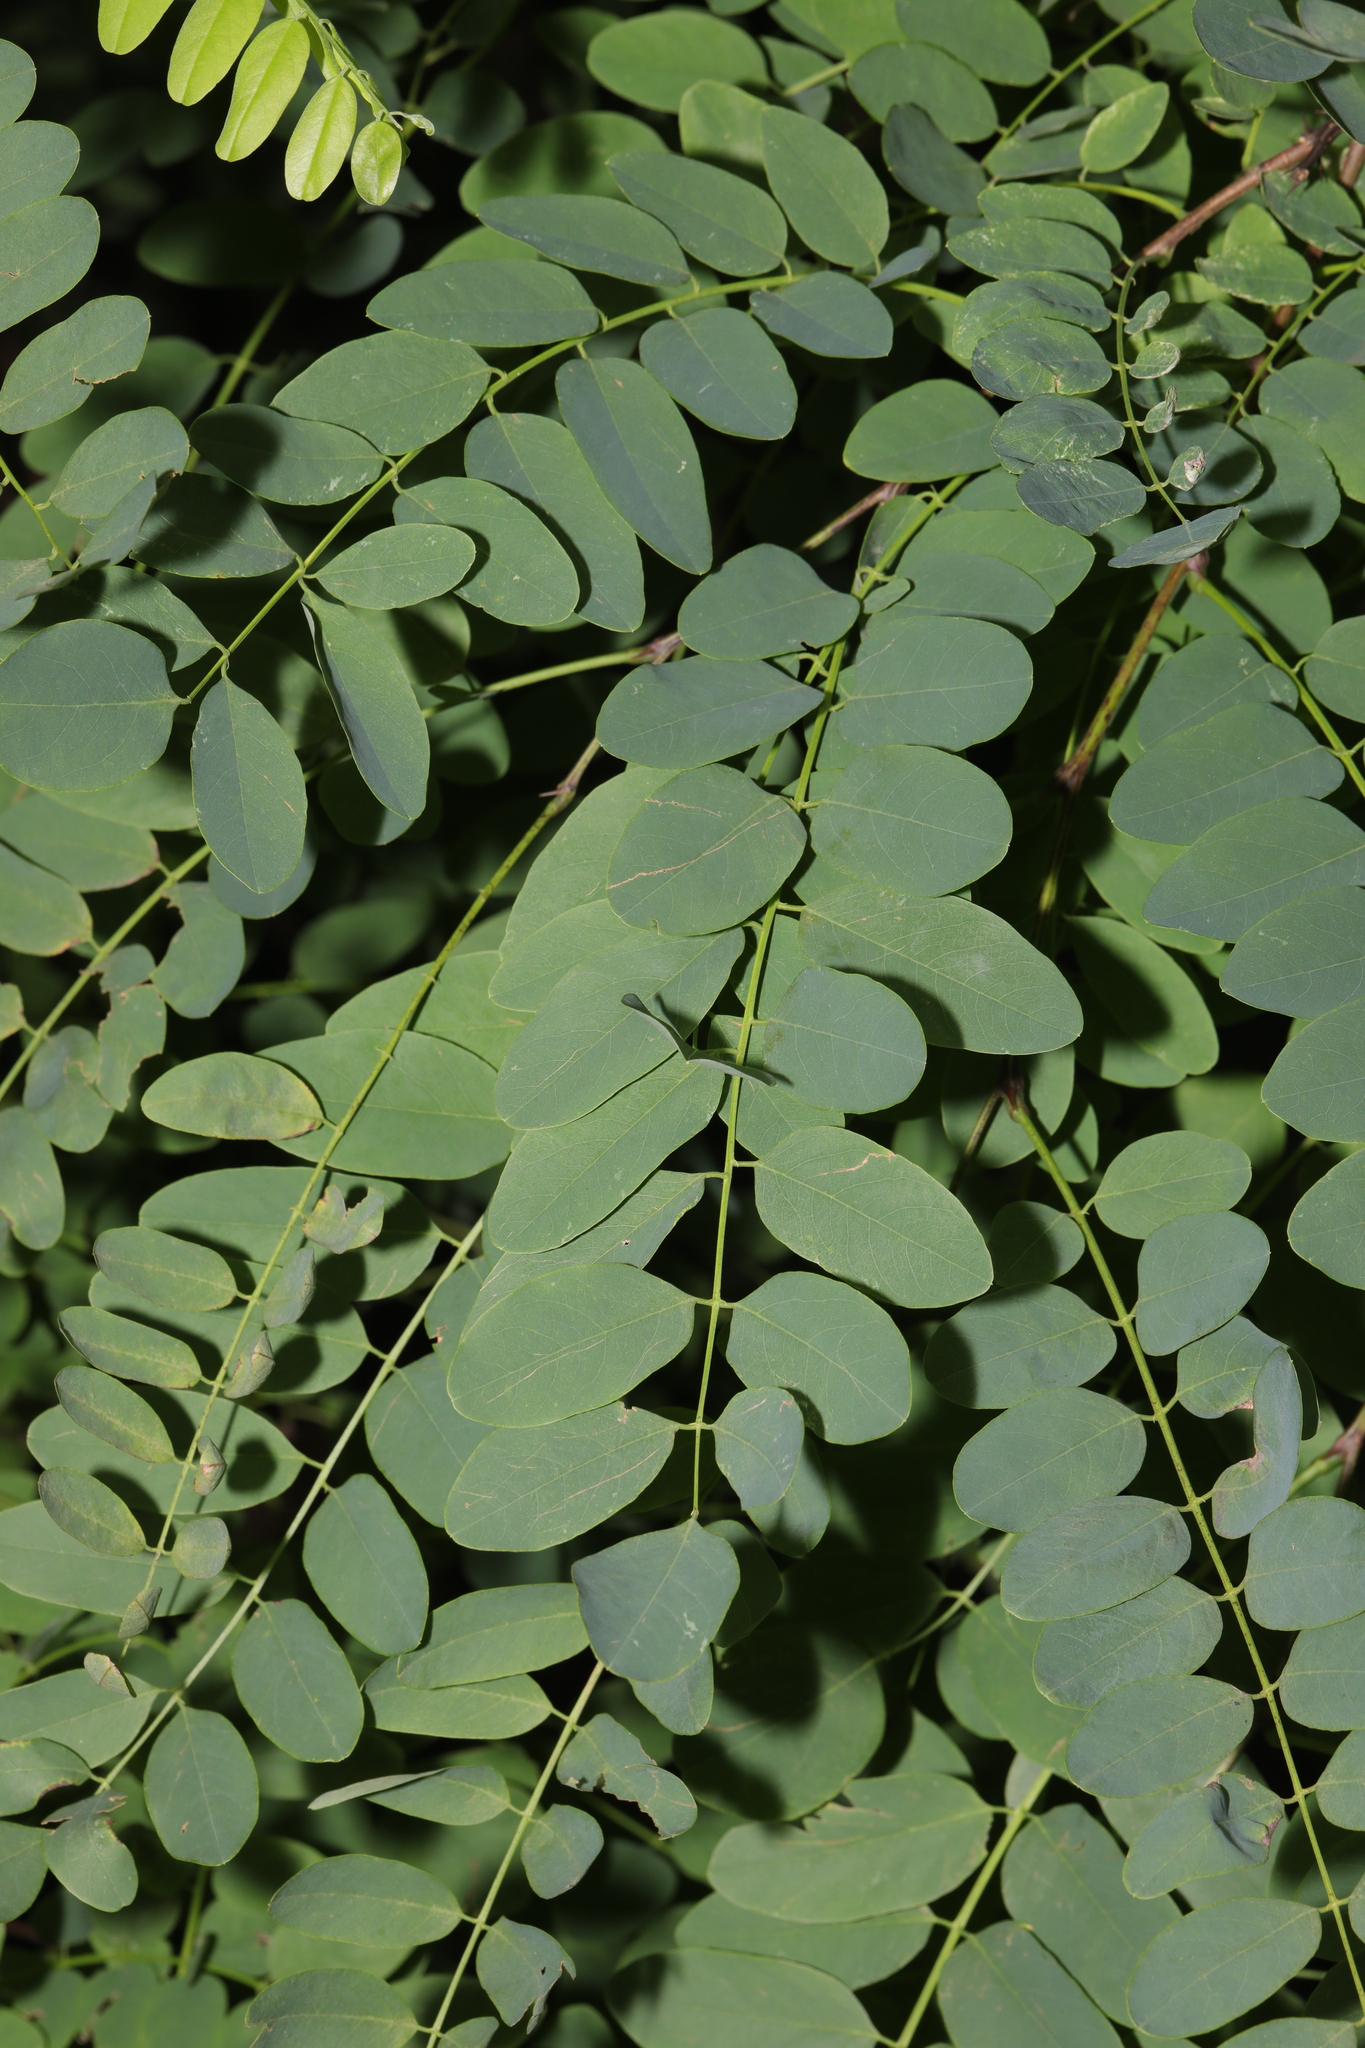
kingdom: Plantae
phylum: Tracheophyta
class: Magnoliopsida
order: Fabales
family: Fabaceae
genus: Robinia
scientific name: Robinia pseudoacacia
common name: Black locust
